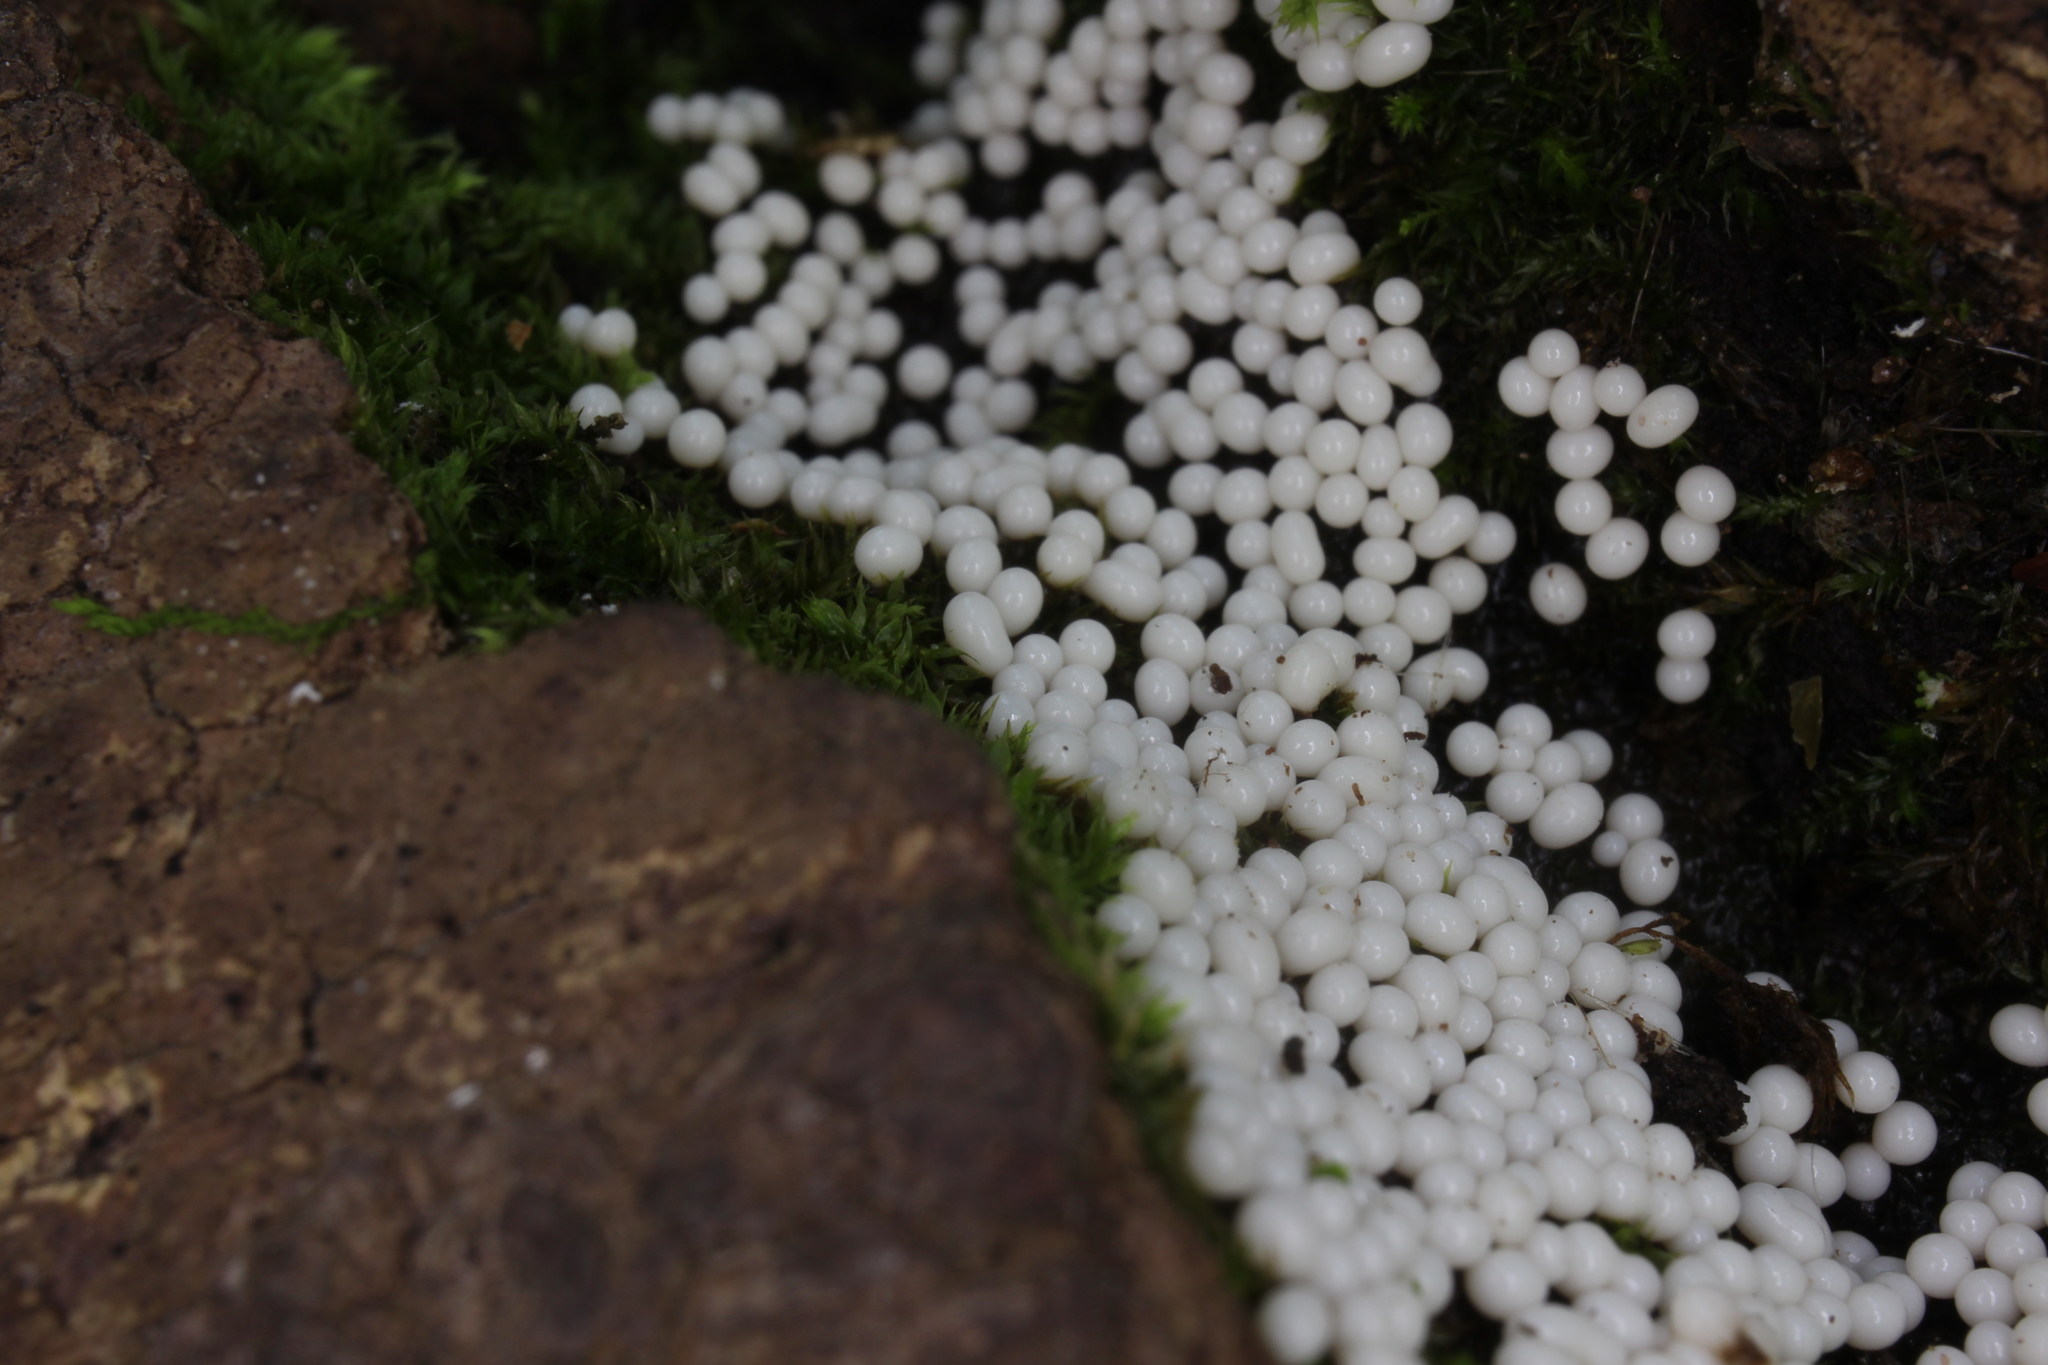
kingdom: Protozoa
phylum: Mycetozoa
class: Myxomycetes
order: Trichiales
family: Trichiaceae
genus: Trichia
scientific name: Trichia varia
